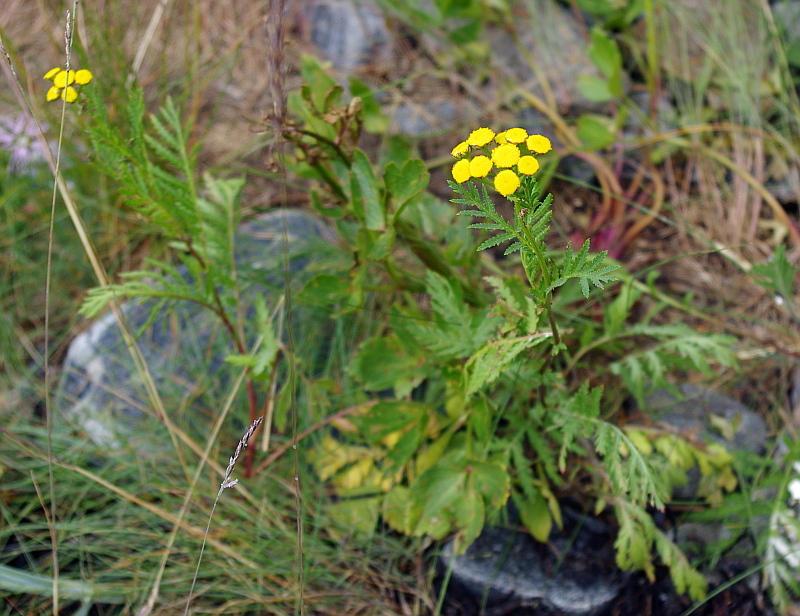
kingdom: Plantae
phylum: Tracheophyta
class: Magnoliopsida
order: Asterales
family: Asteraceae
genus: Tanacetum
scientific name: Tanacetum vulgare
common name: Common tansy
